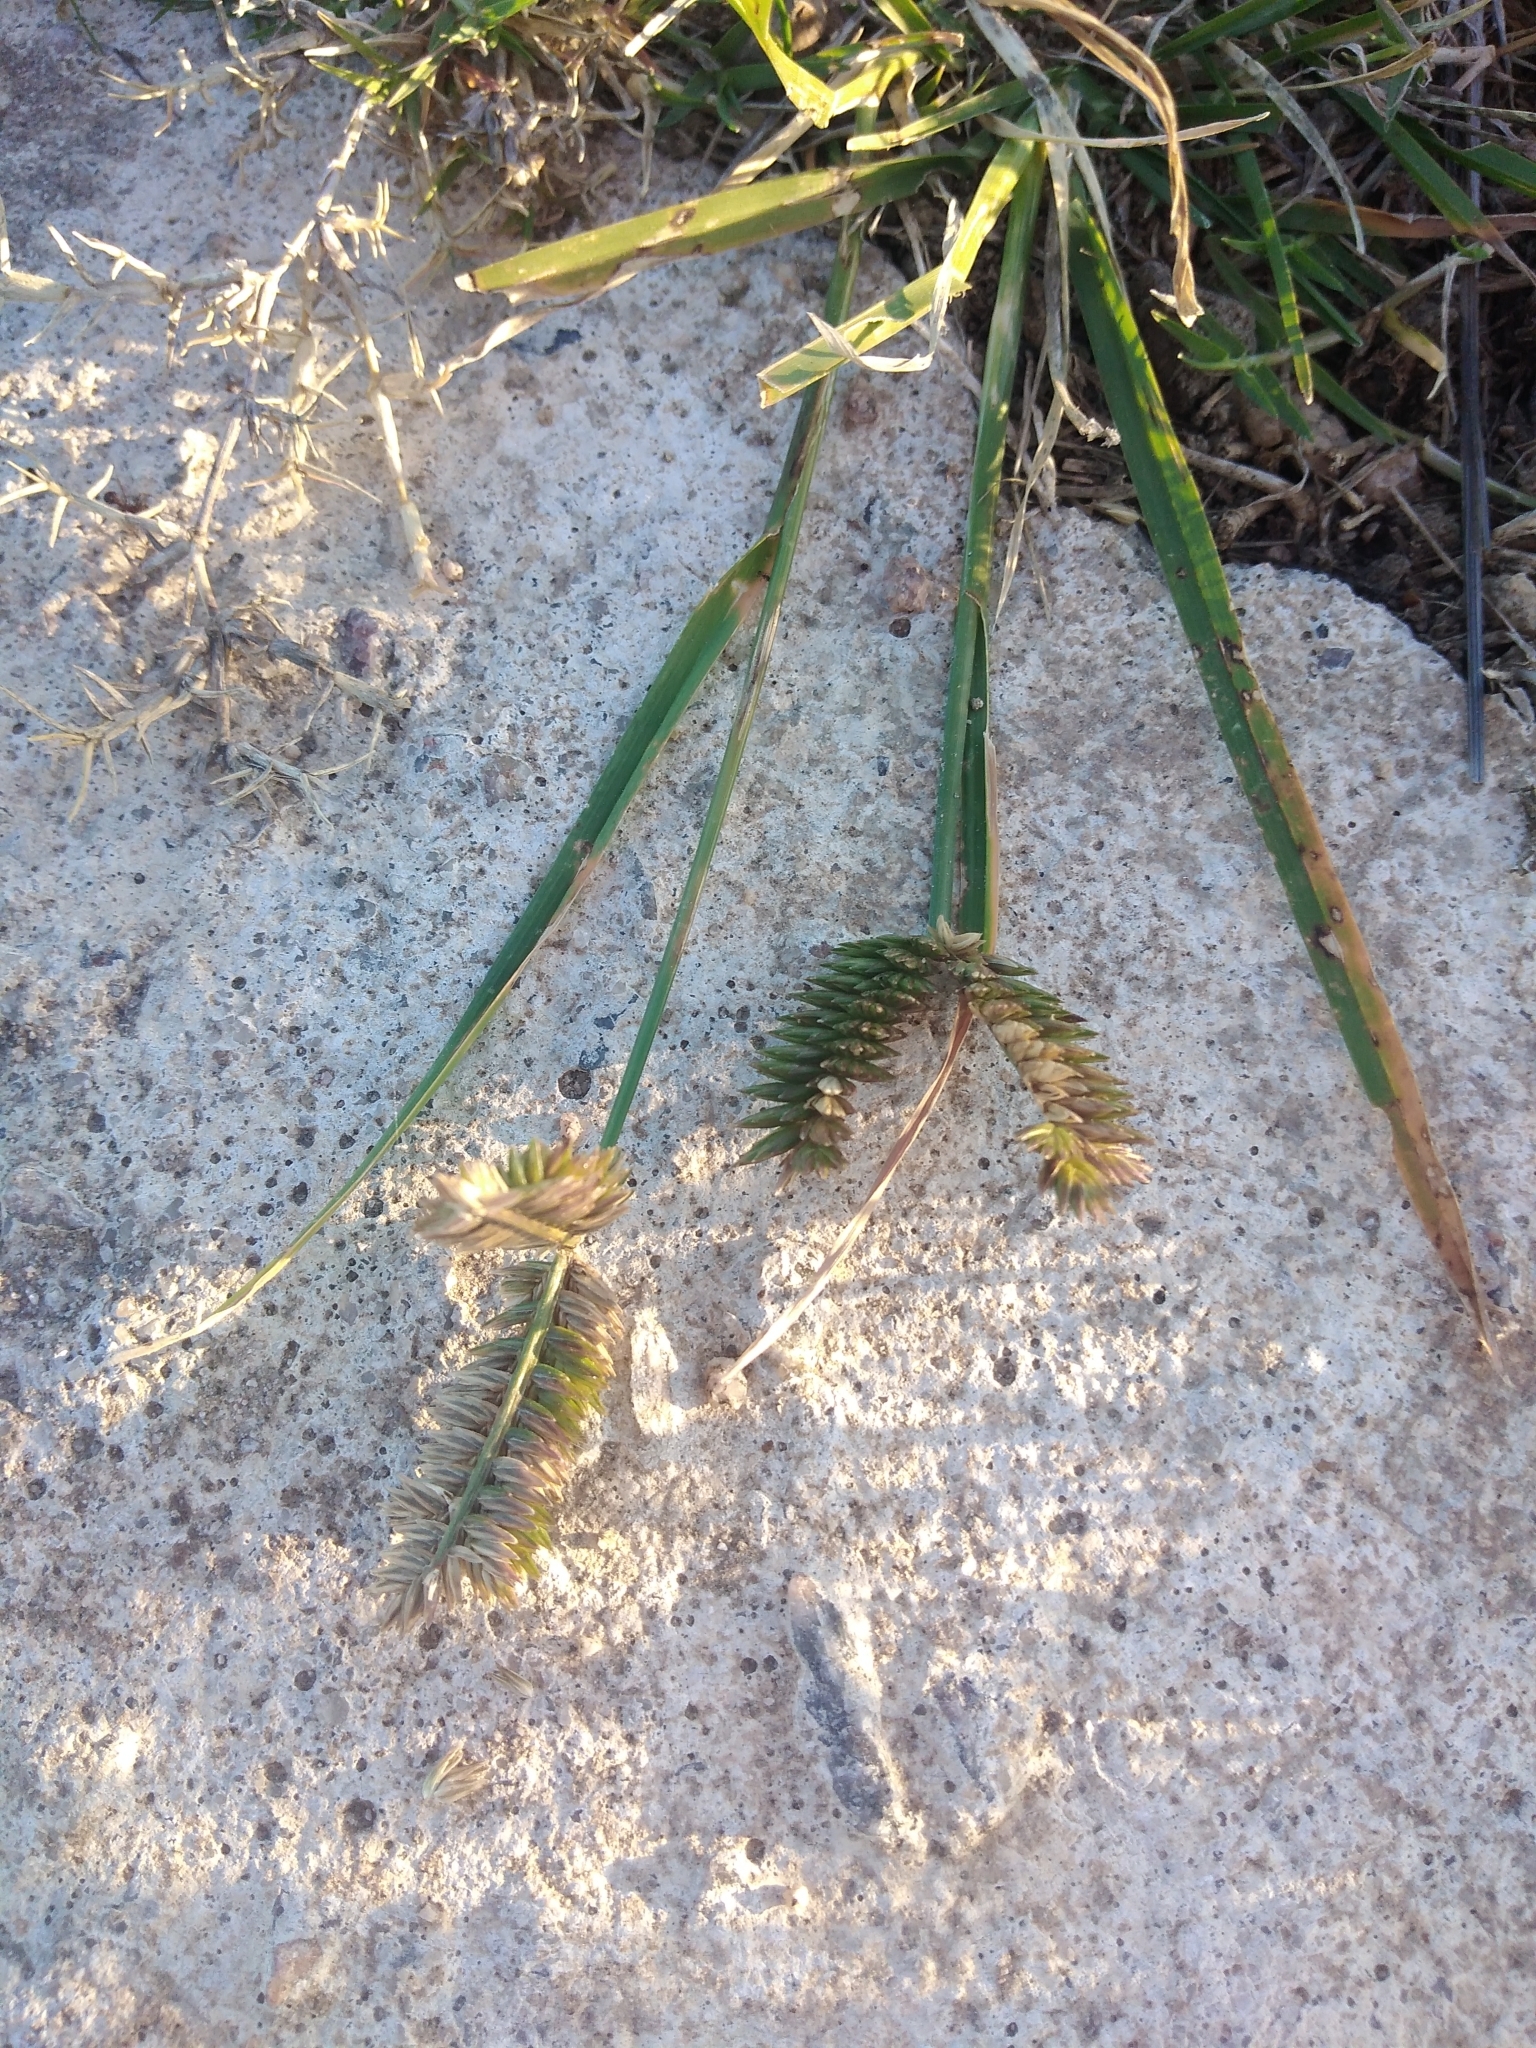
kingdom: Plantae
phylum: Tracheophyta
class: Liliopsida
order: Poales
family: Poaceae
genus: Eleusine
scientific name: Eleusine tristachya
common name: American yard-grass
